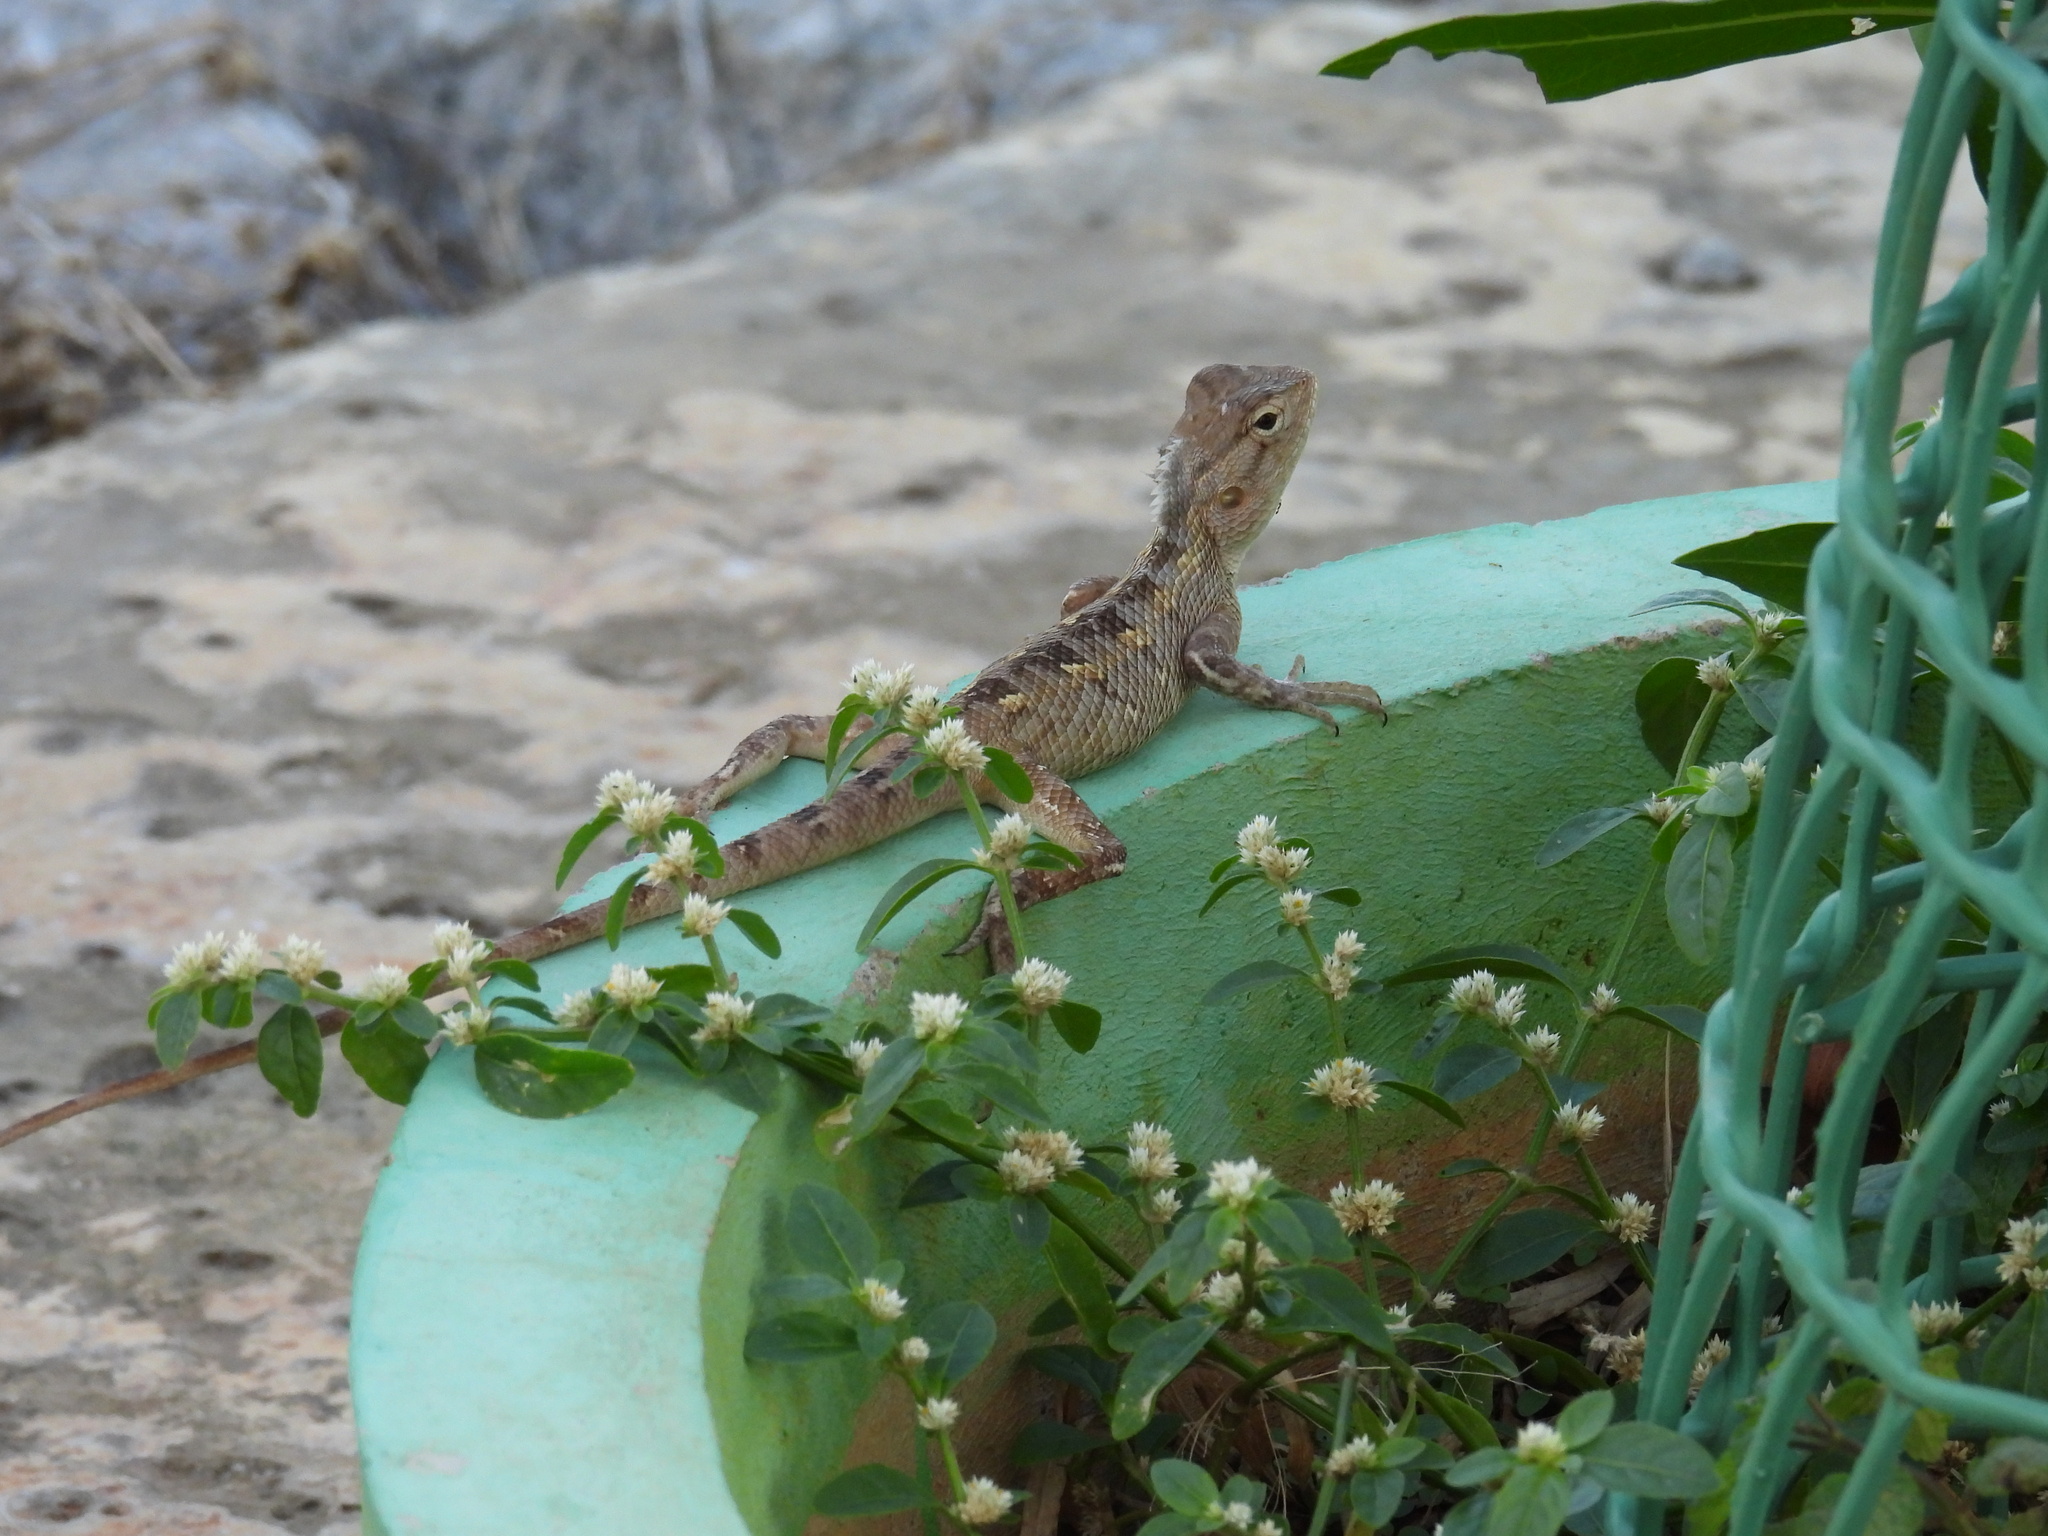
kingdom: Animalia
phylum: Chordata
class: Squamata
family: Agamidae
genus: Calotes
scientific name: Calotes versicolor
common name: Oriental garden lizard
